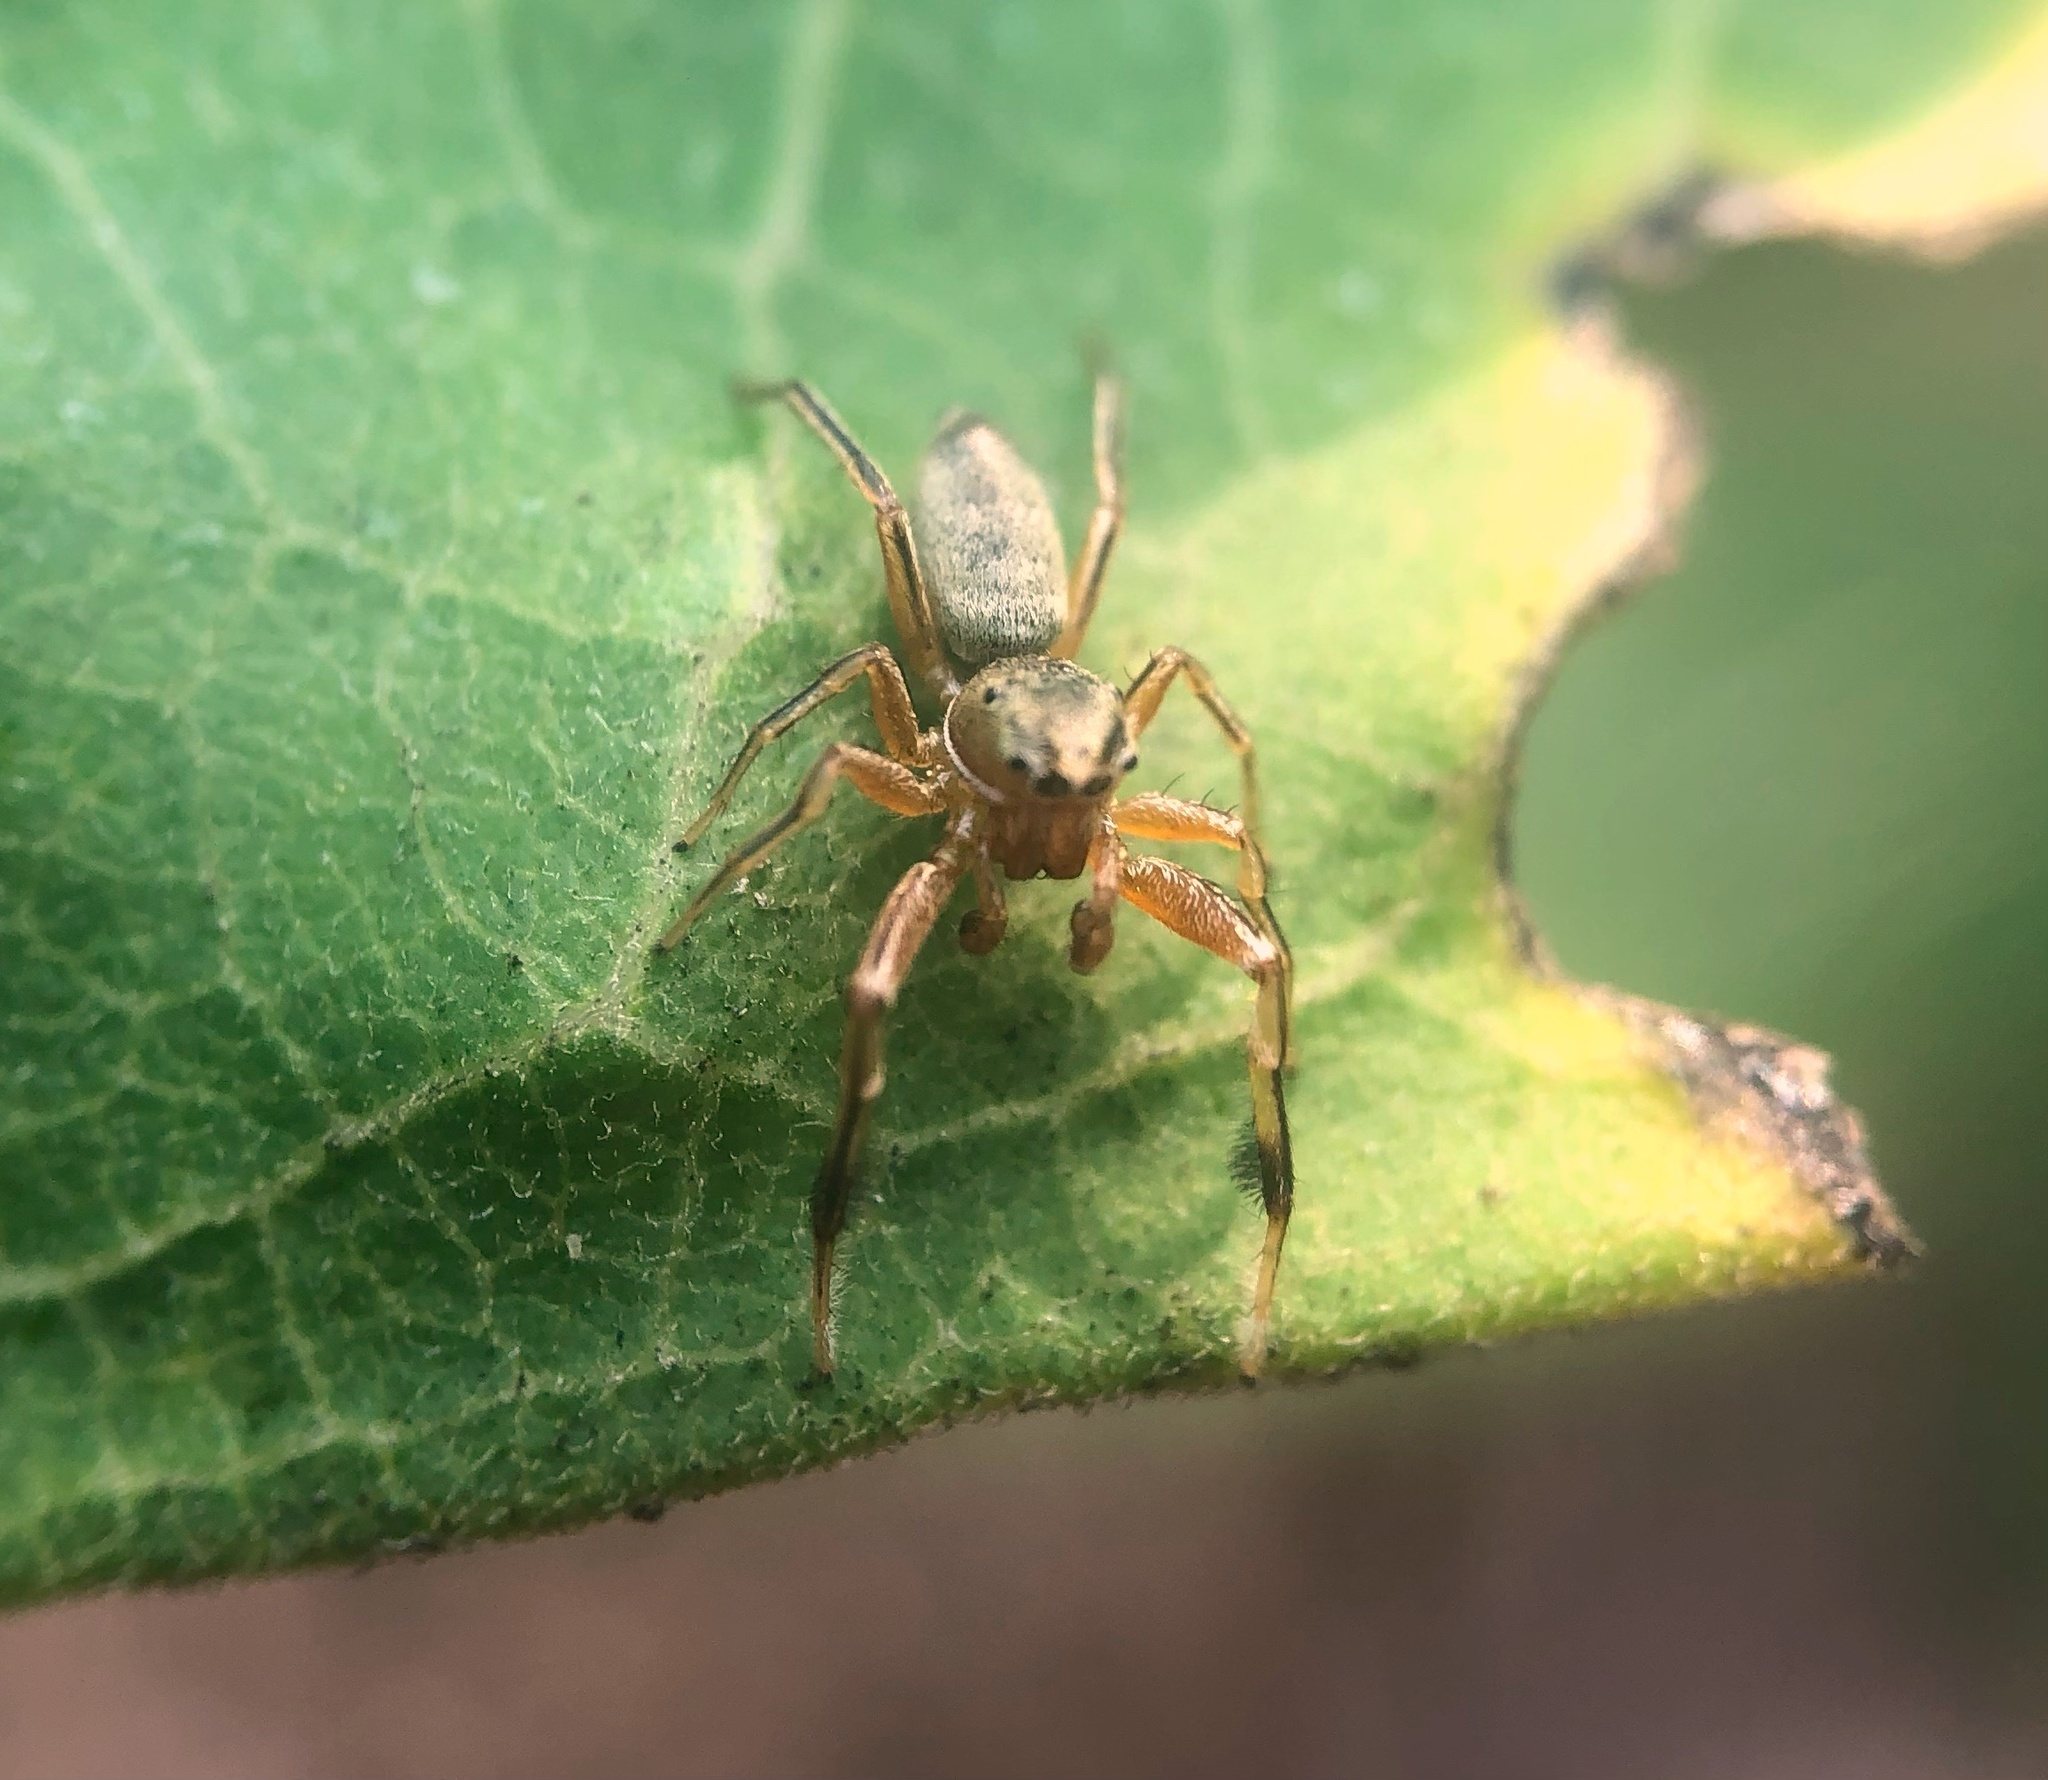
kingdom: Animalia
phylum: Arthropoda
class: Arachnida
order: Araneae
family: Salticidae
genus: Tutelina
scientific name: Tutelina elegans
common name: Thin-spined jumping spider
